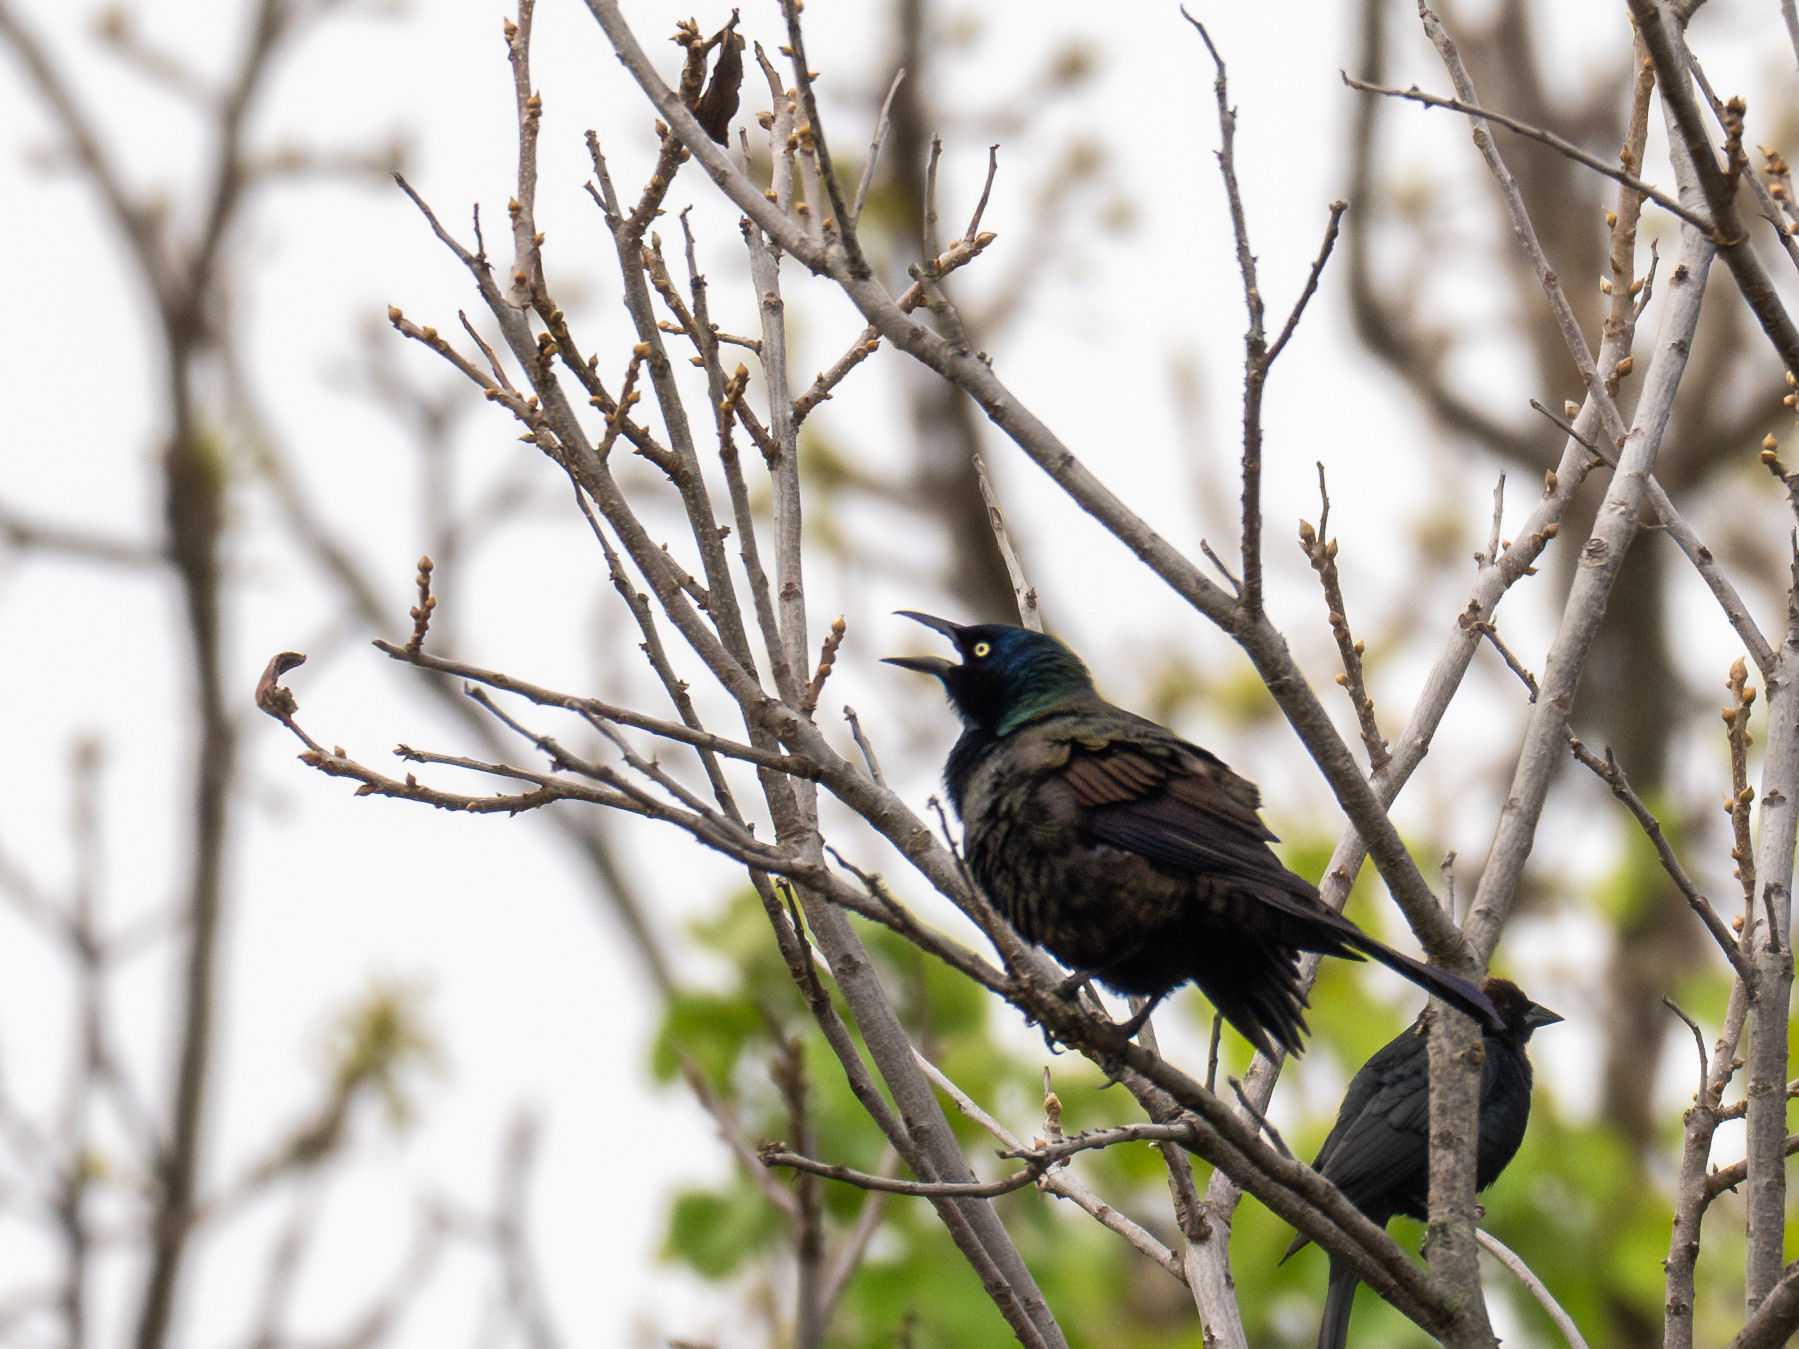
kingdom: Animalia
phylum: Chordata
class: Aves
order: Passeriformes
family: Icteridae
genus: Quiscalus
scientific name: Quiscalus quiscula
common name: Common grackle
